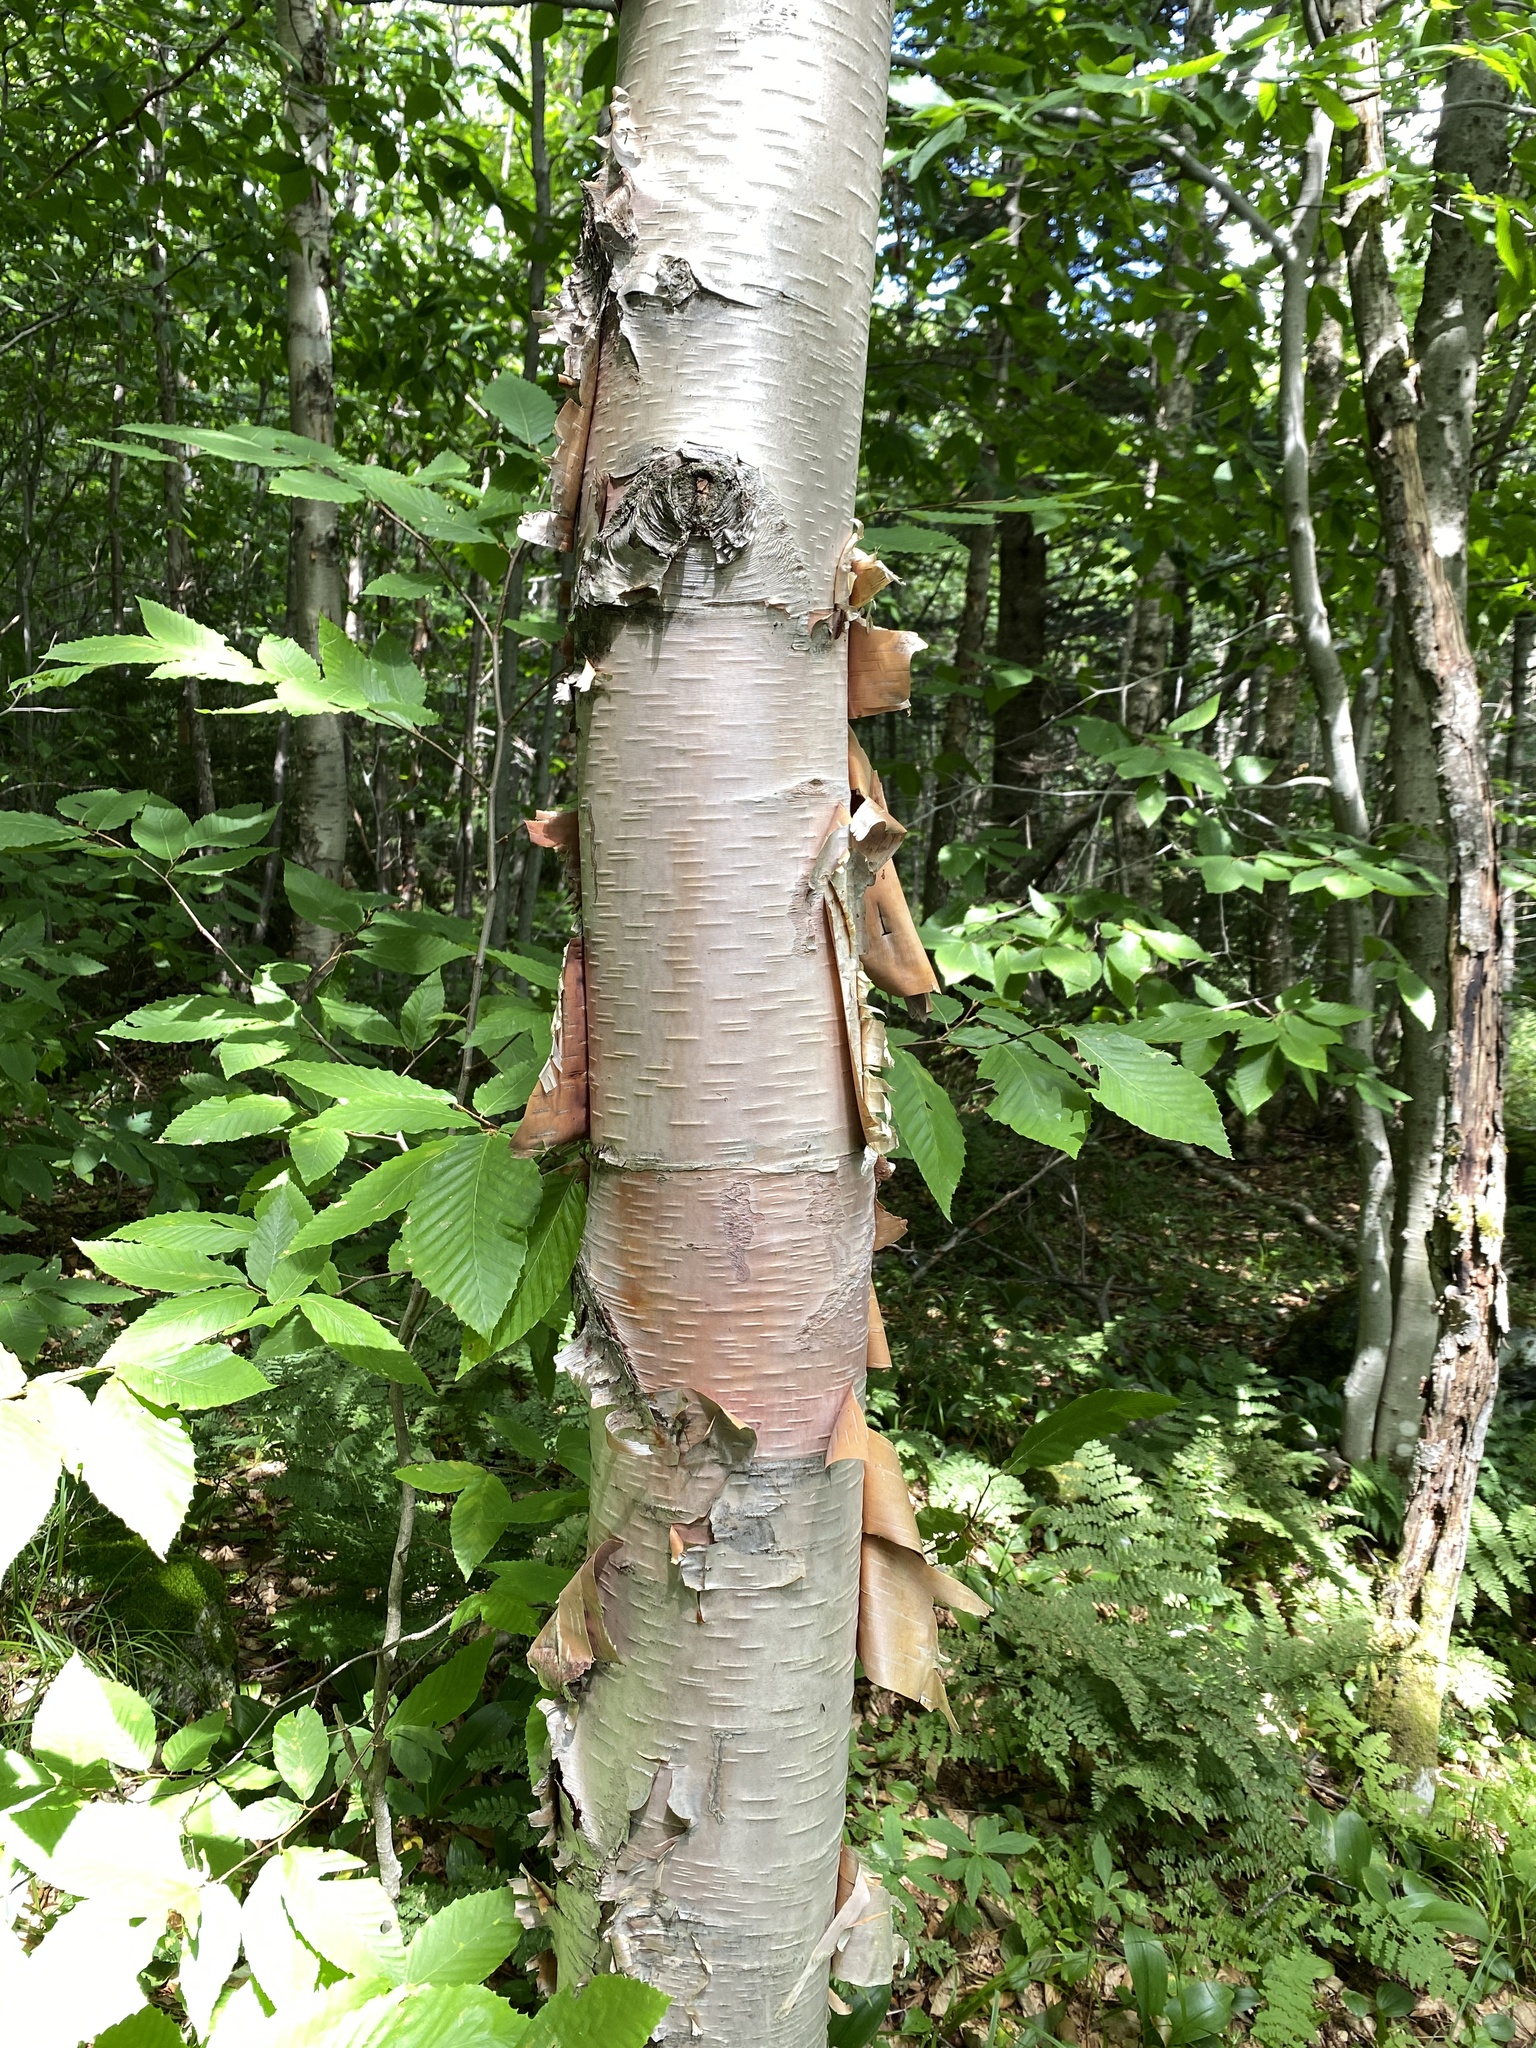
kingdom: Plantae
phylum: Tracheophyta
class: Magnoliopsida
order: Fagales
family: Betulaceae
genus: Betula
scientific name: Betula cordifolia
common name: Mountain white birch
